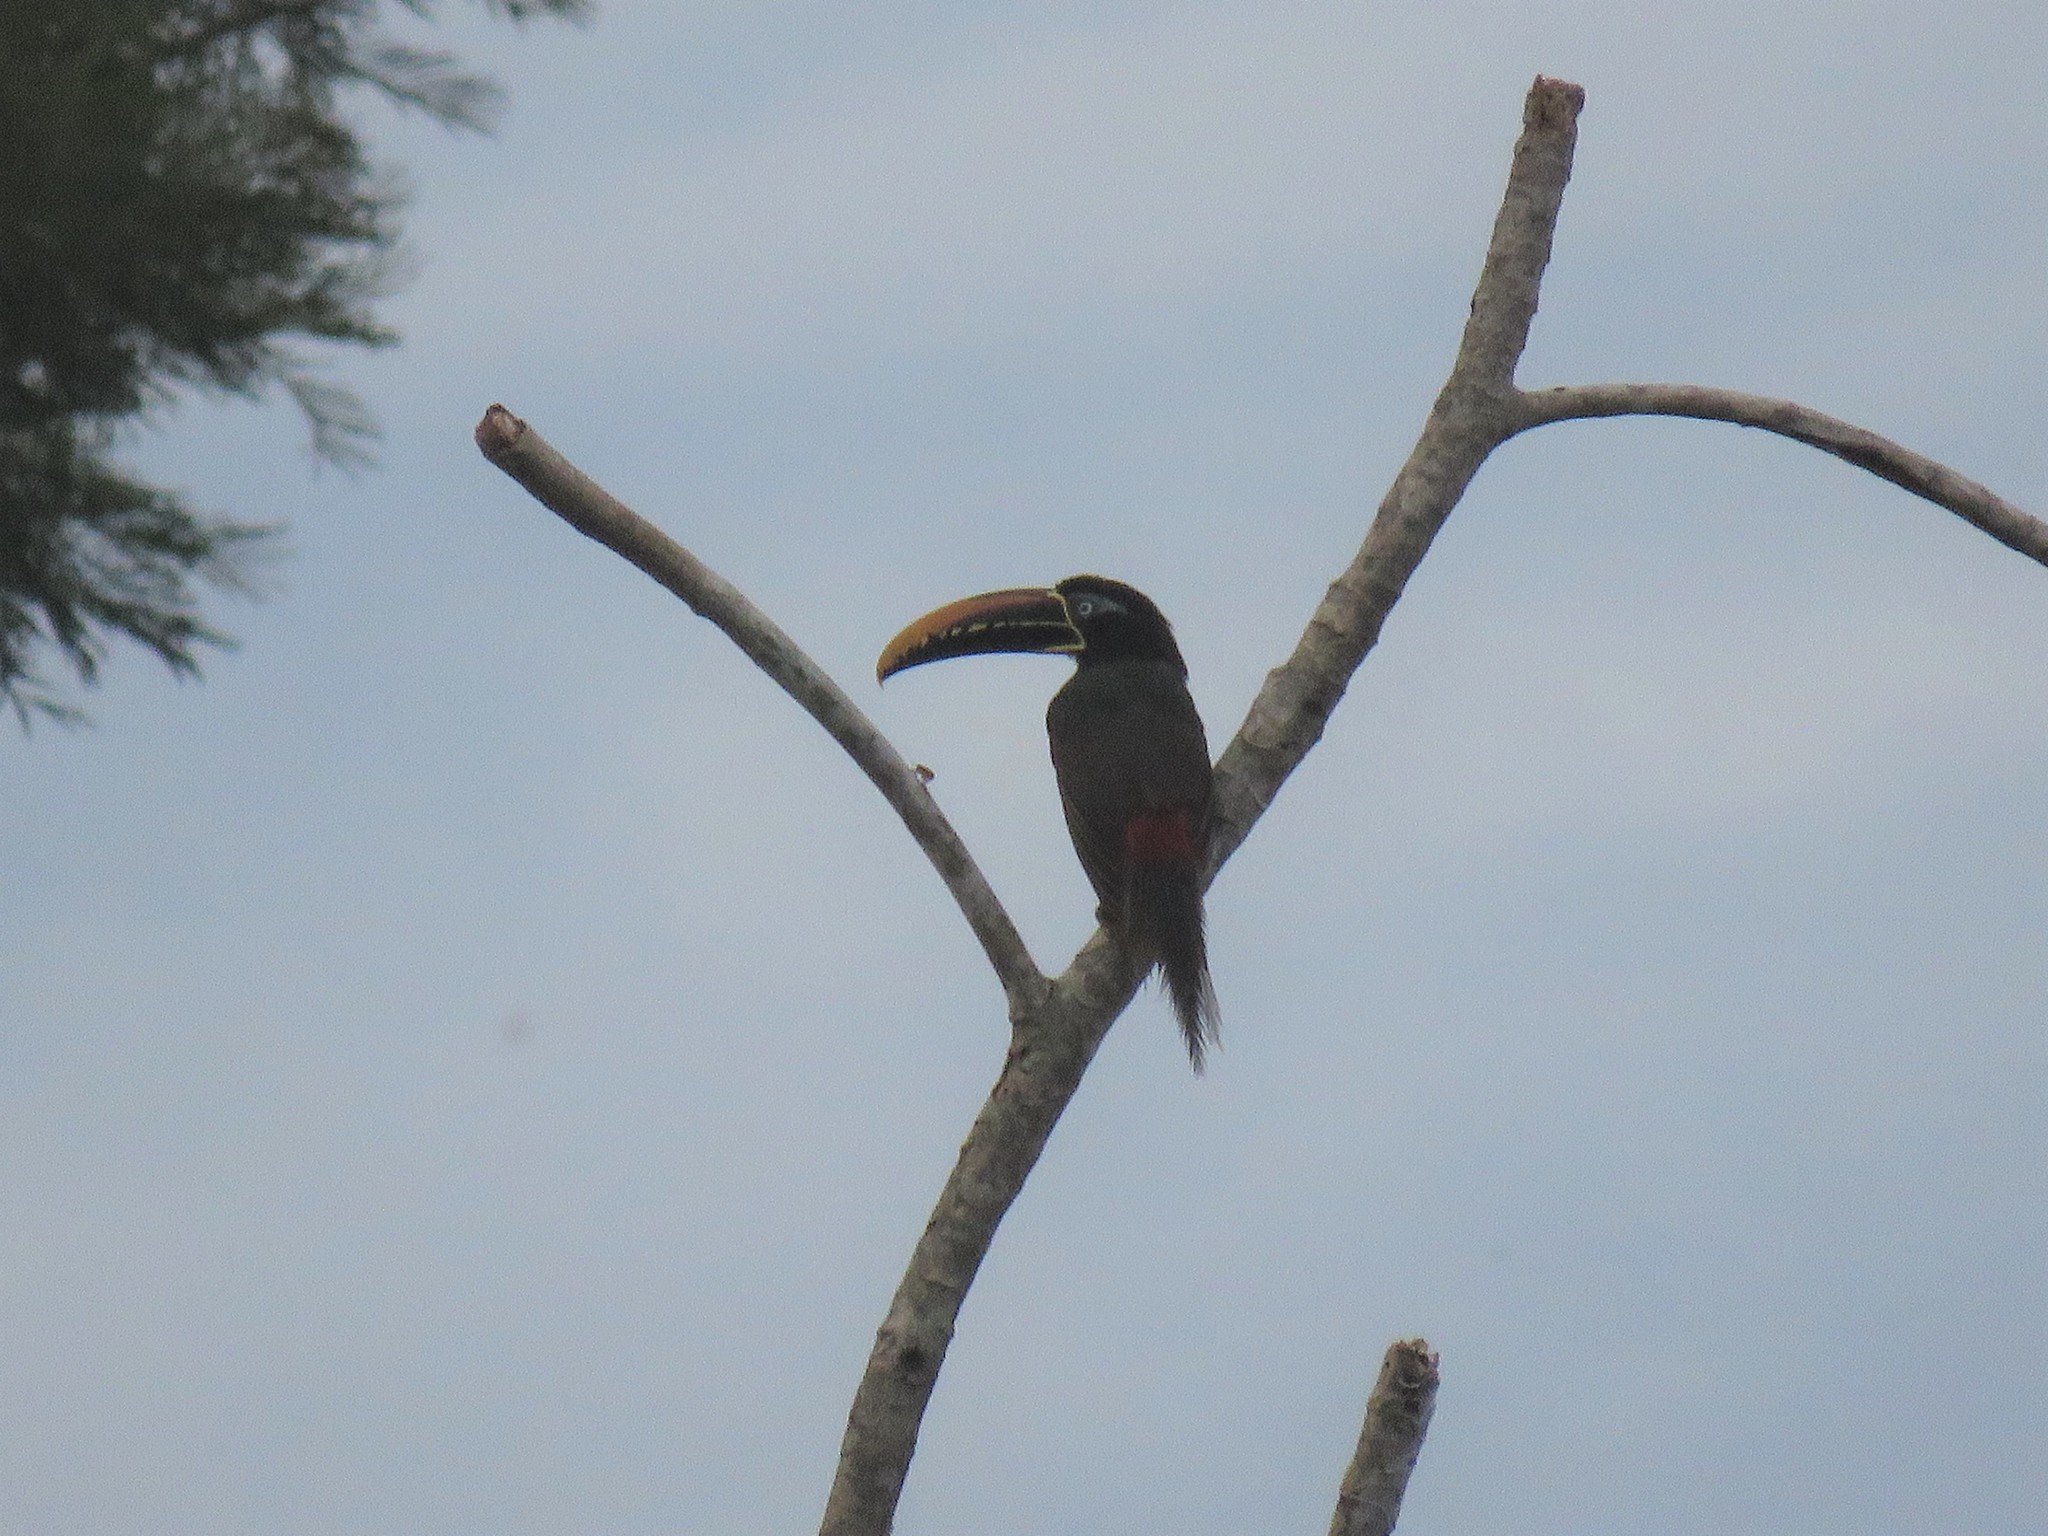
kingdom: Animalia
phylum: Chordata
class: Aves
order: Piciformes
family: Ramphastidae
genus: Pteroglossus
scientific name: Pteroglossus castanotis
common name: Chestnut-eared aracari
